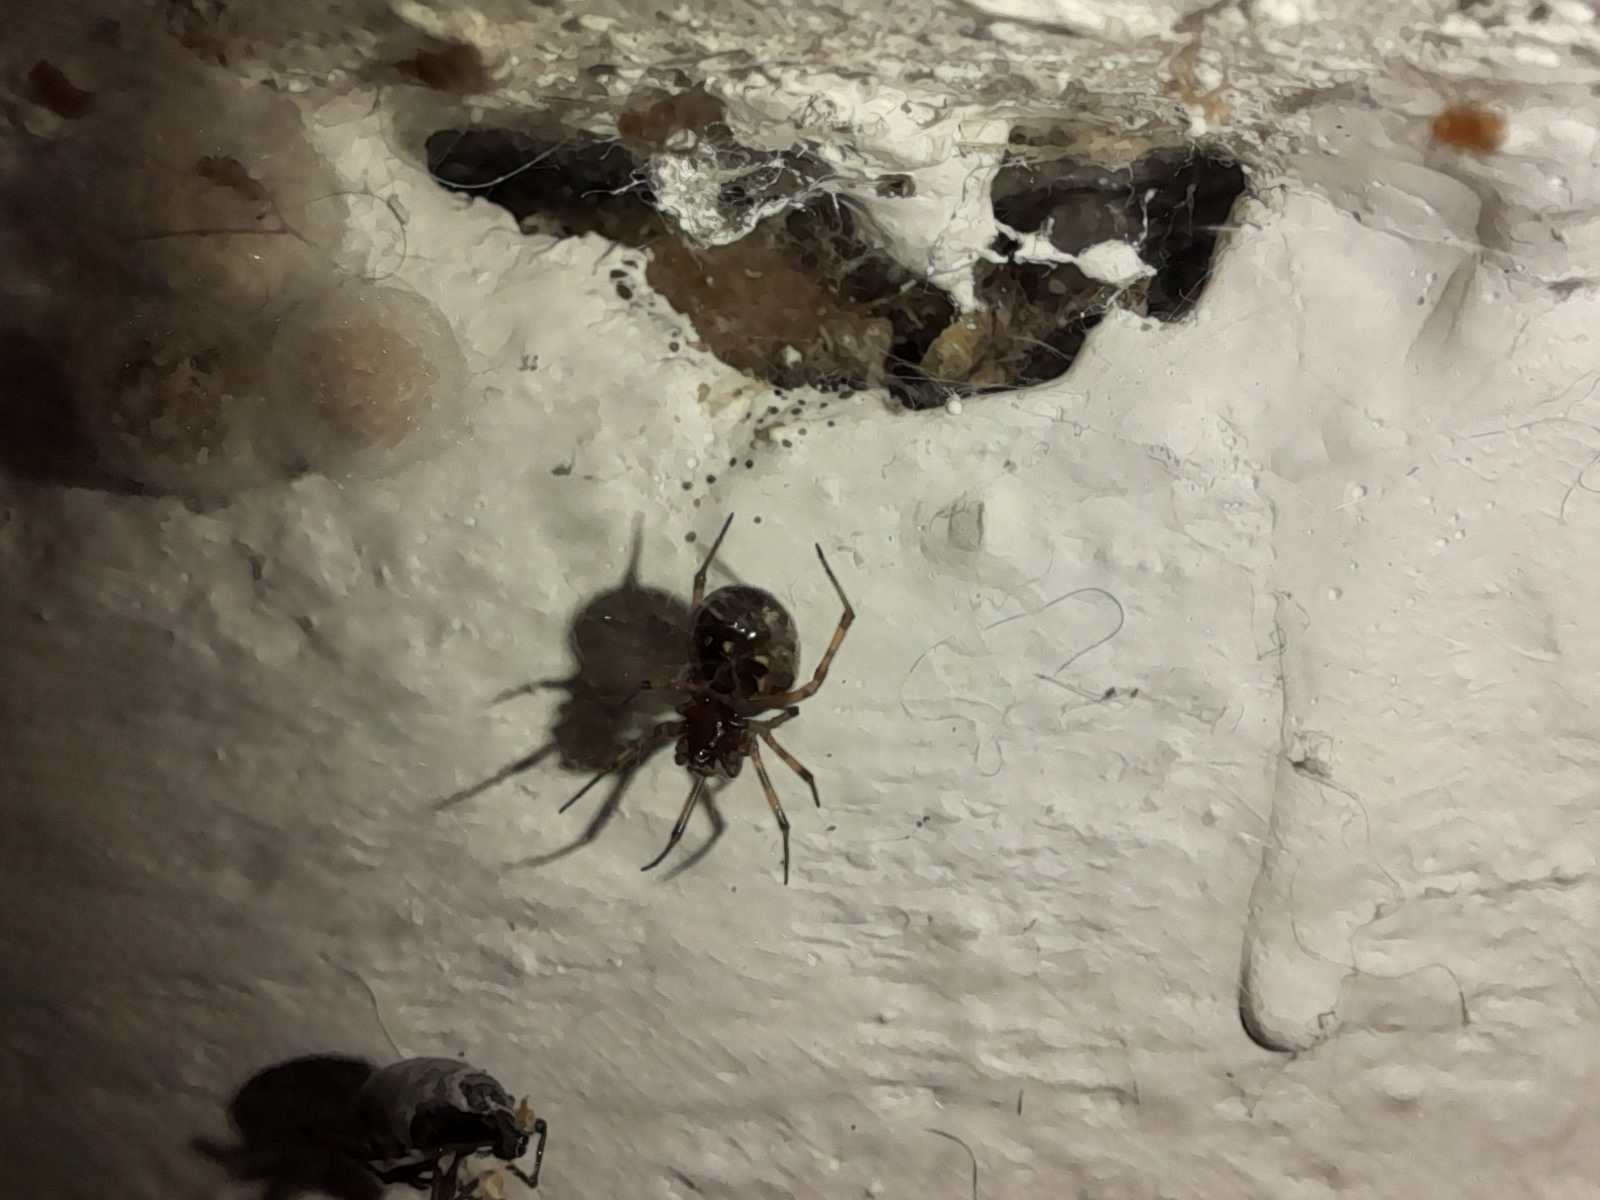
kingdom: Animalia
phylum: Arthropoda
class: Arachnida
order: Araneae
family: Theridiidae
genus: Steatoda
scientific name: Steatoda triangulosa
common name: Triangulate bud spider
